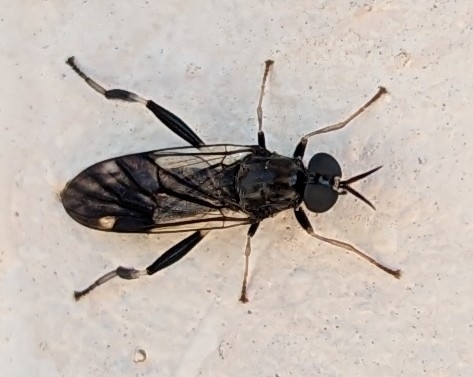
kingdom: Animalia
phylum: Arthropoda
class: Insecta
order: Diptera
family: Stratiomyidae
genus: Exaireta
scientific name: Exaireta spinigera
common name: Blue soldier fly
